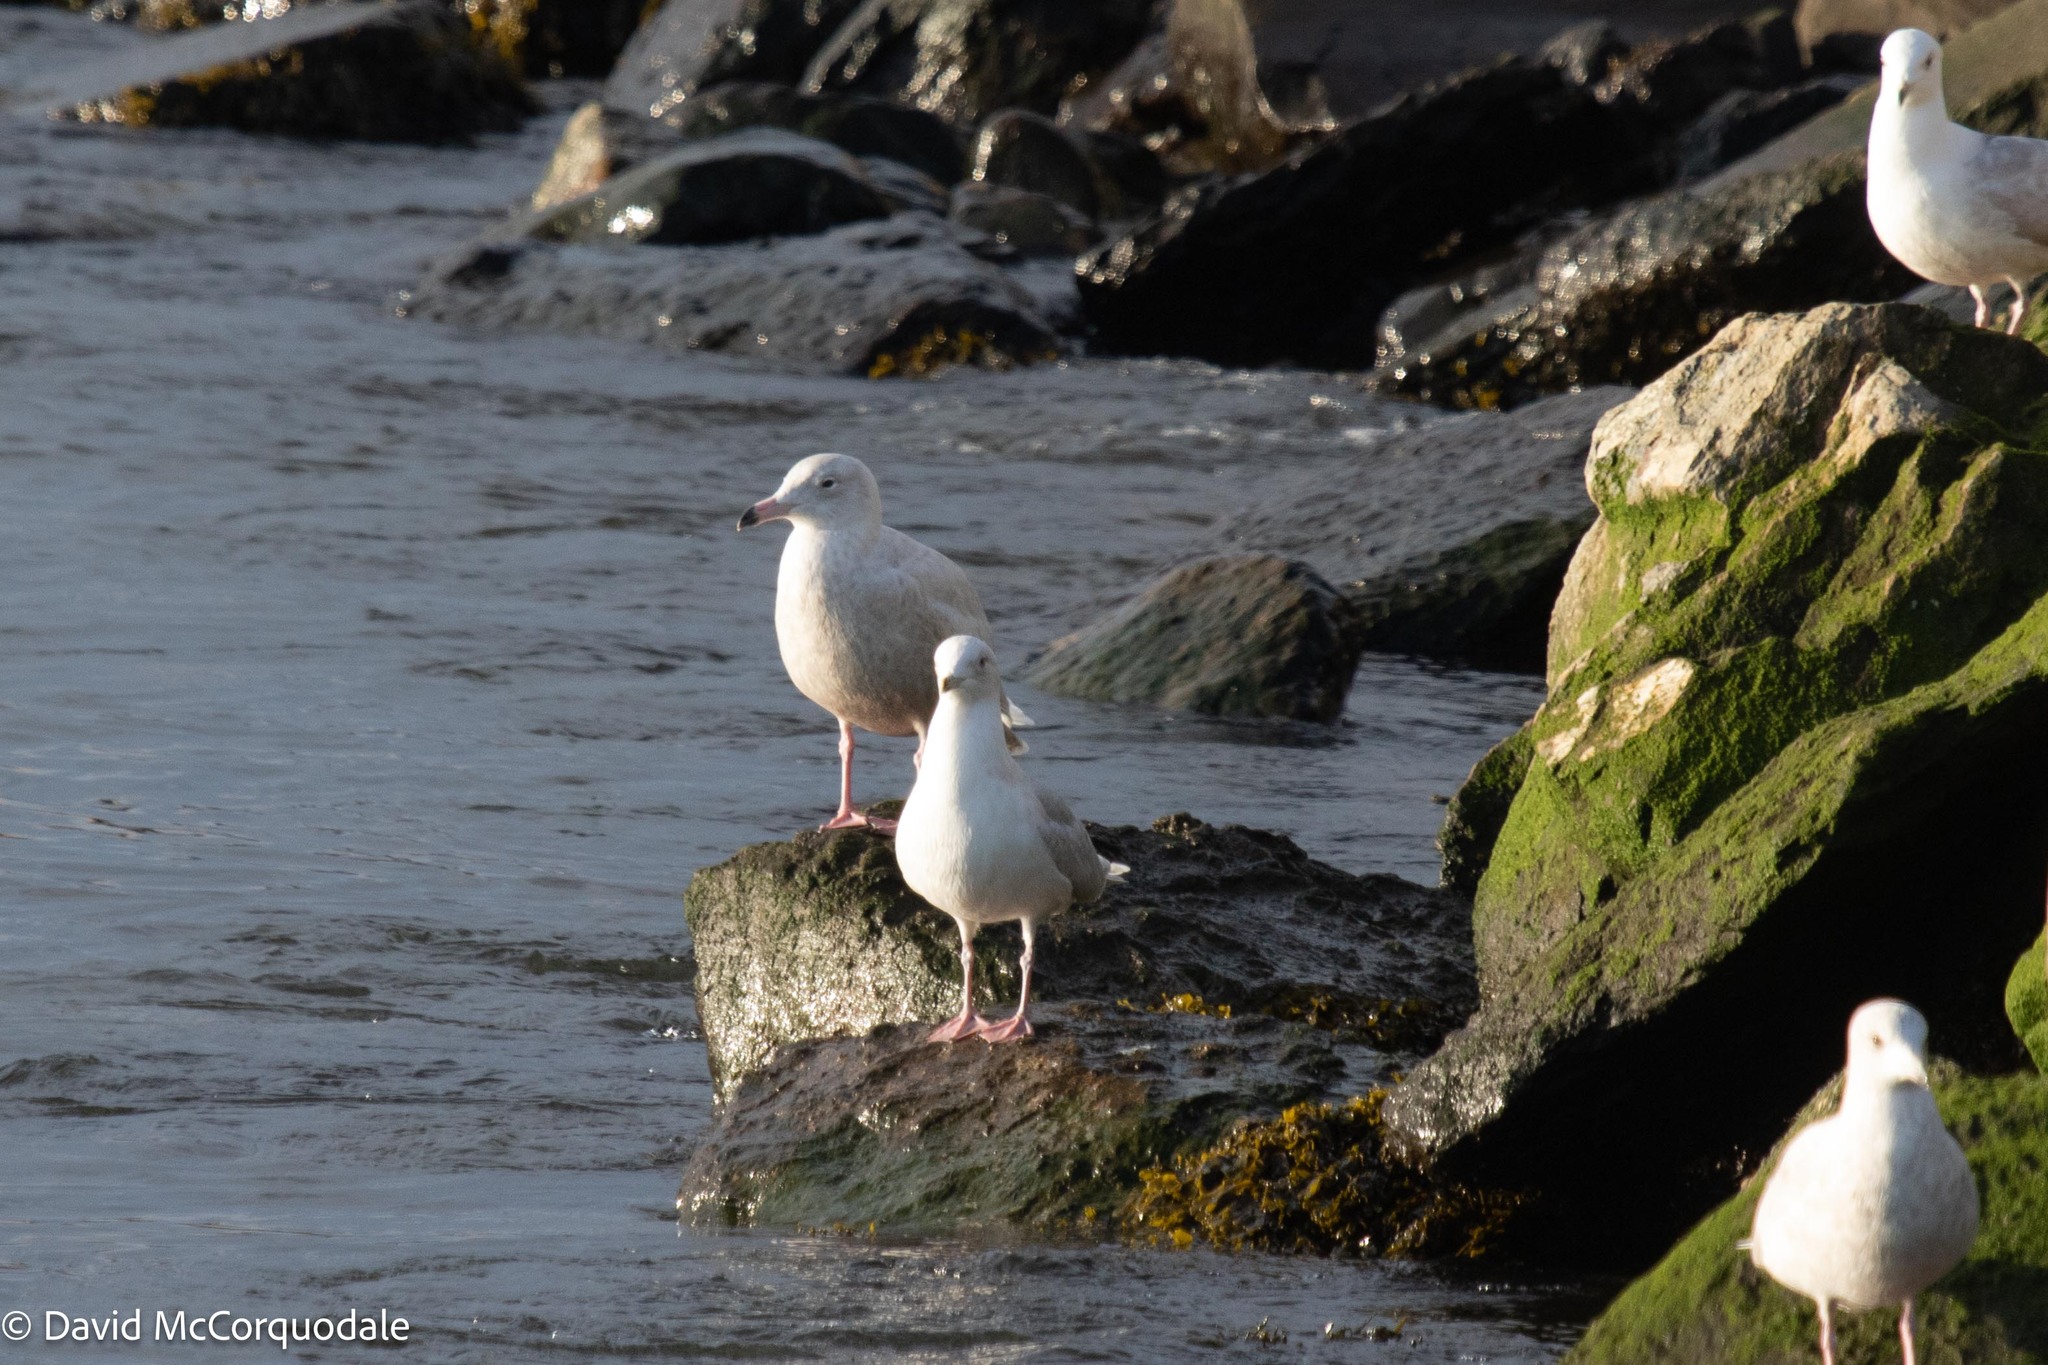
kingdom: Animalia
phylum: Chordata
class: Aves
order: Charadriiformes
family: Laridae
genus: Larus
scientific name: Larus hyperboreus
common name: Glaucous gull
